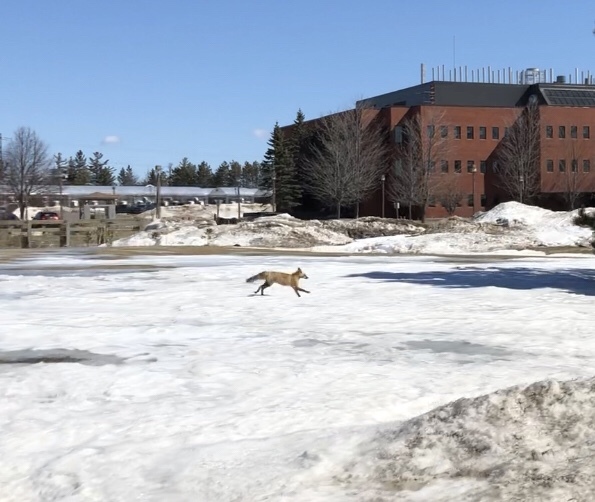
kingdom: Animalia
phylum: Chordata
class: Mammalia
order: Carnivora
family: Canidae
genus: Vulpes
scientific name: Vulpes vulpes
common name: Red fox
